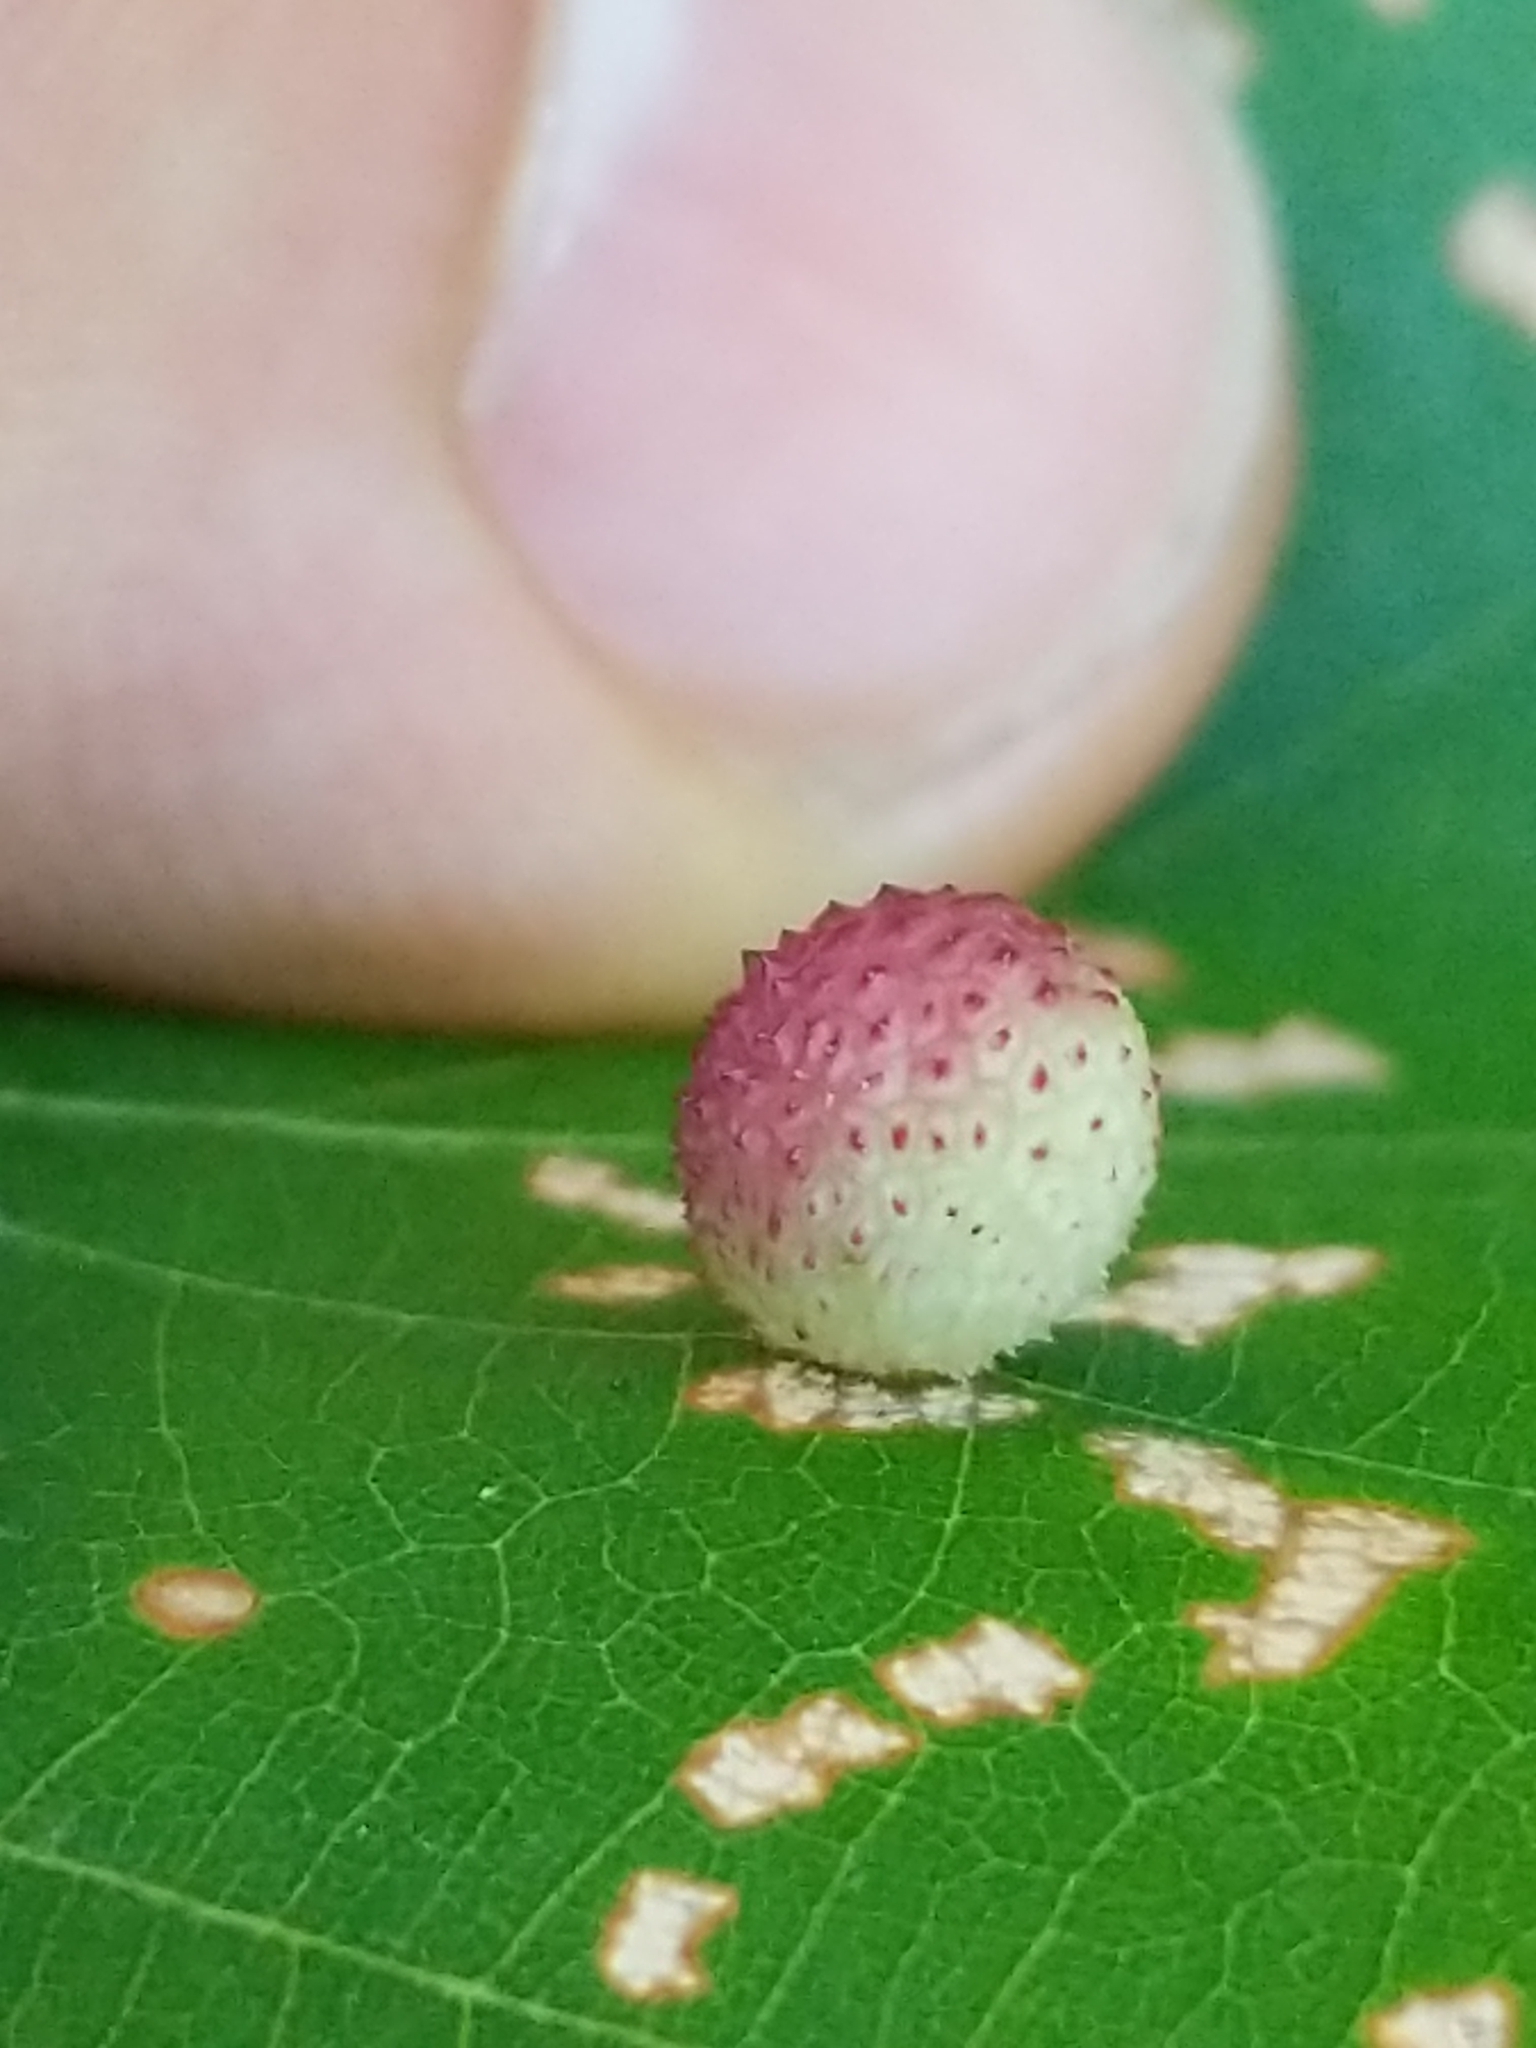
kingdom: Animalia
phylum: Arthropoda
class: Insecta
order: Hymenoptera
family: Cynipidae
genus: Acraspis
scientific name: Acraspis quercushirta
